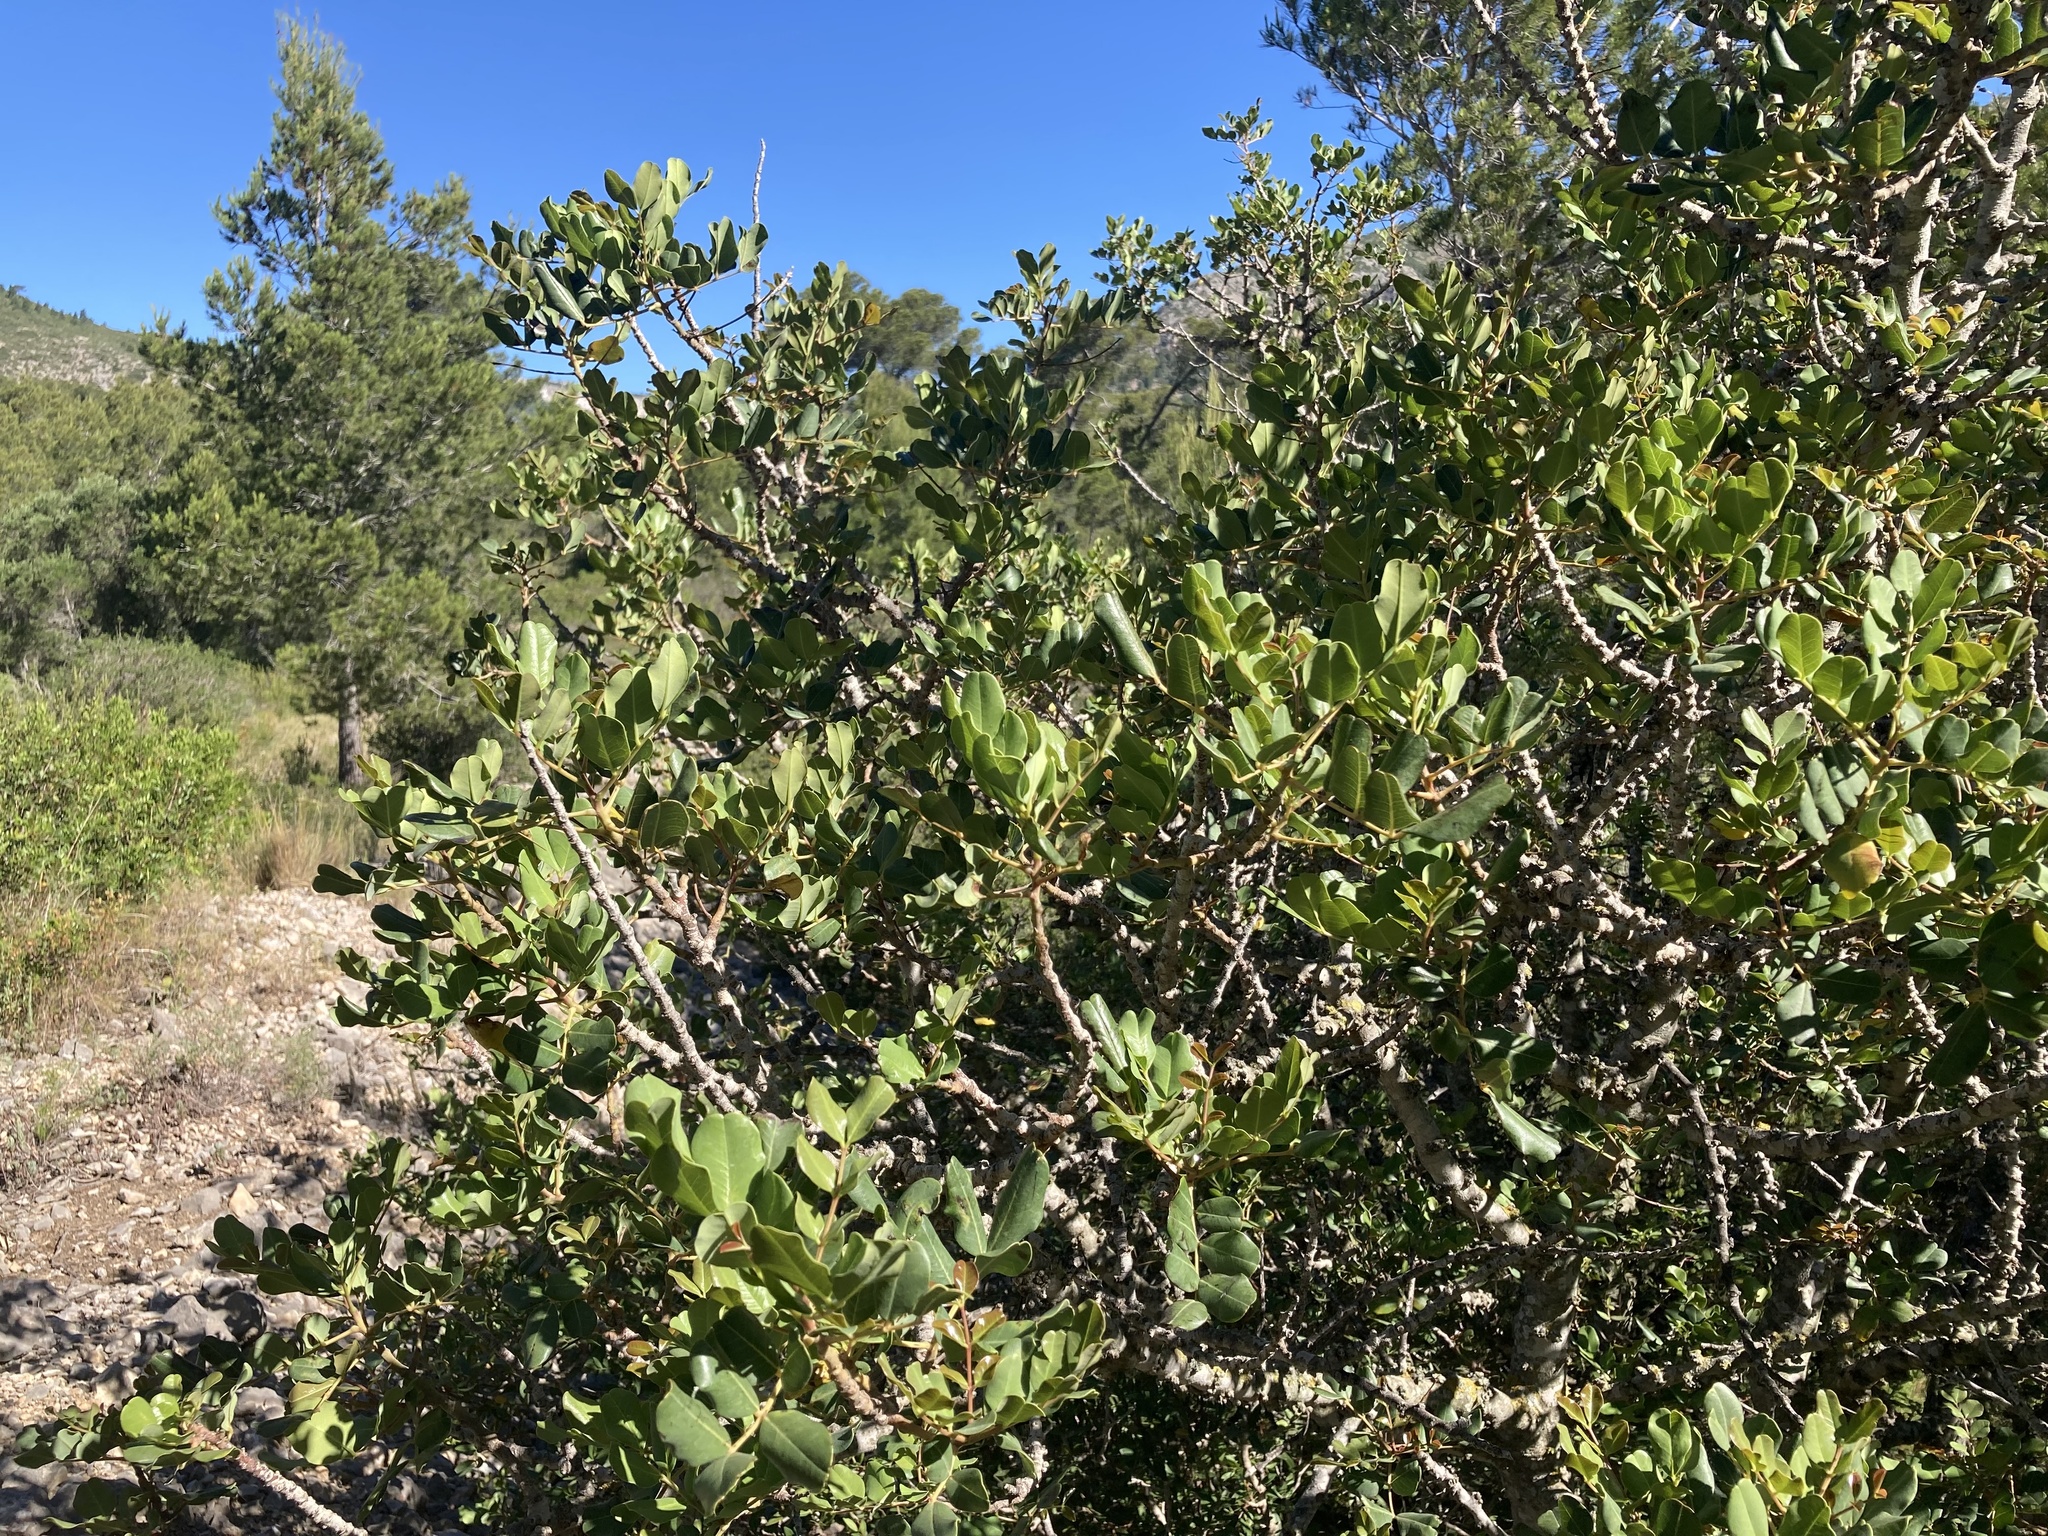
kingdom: Plantae
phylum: Tracheophyta
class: Magnoliopsida
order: Fabales
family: Fabaceae
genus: Ceratonia
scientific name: Ceratonia siliqua
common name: Carob
